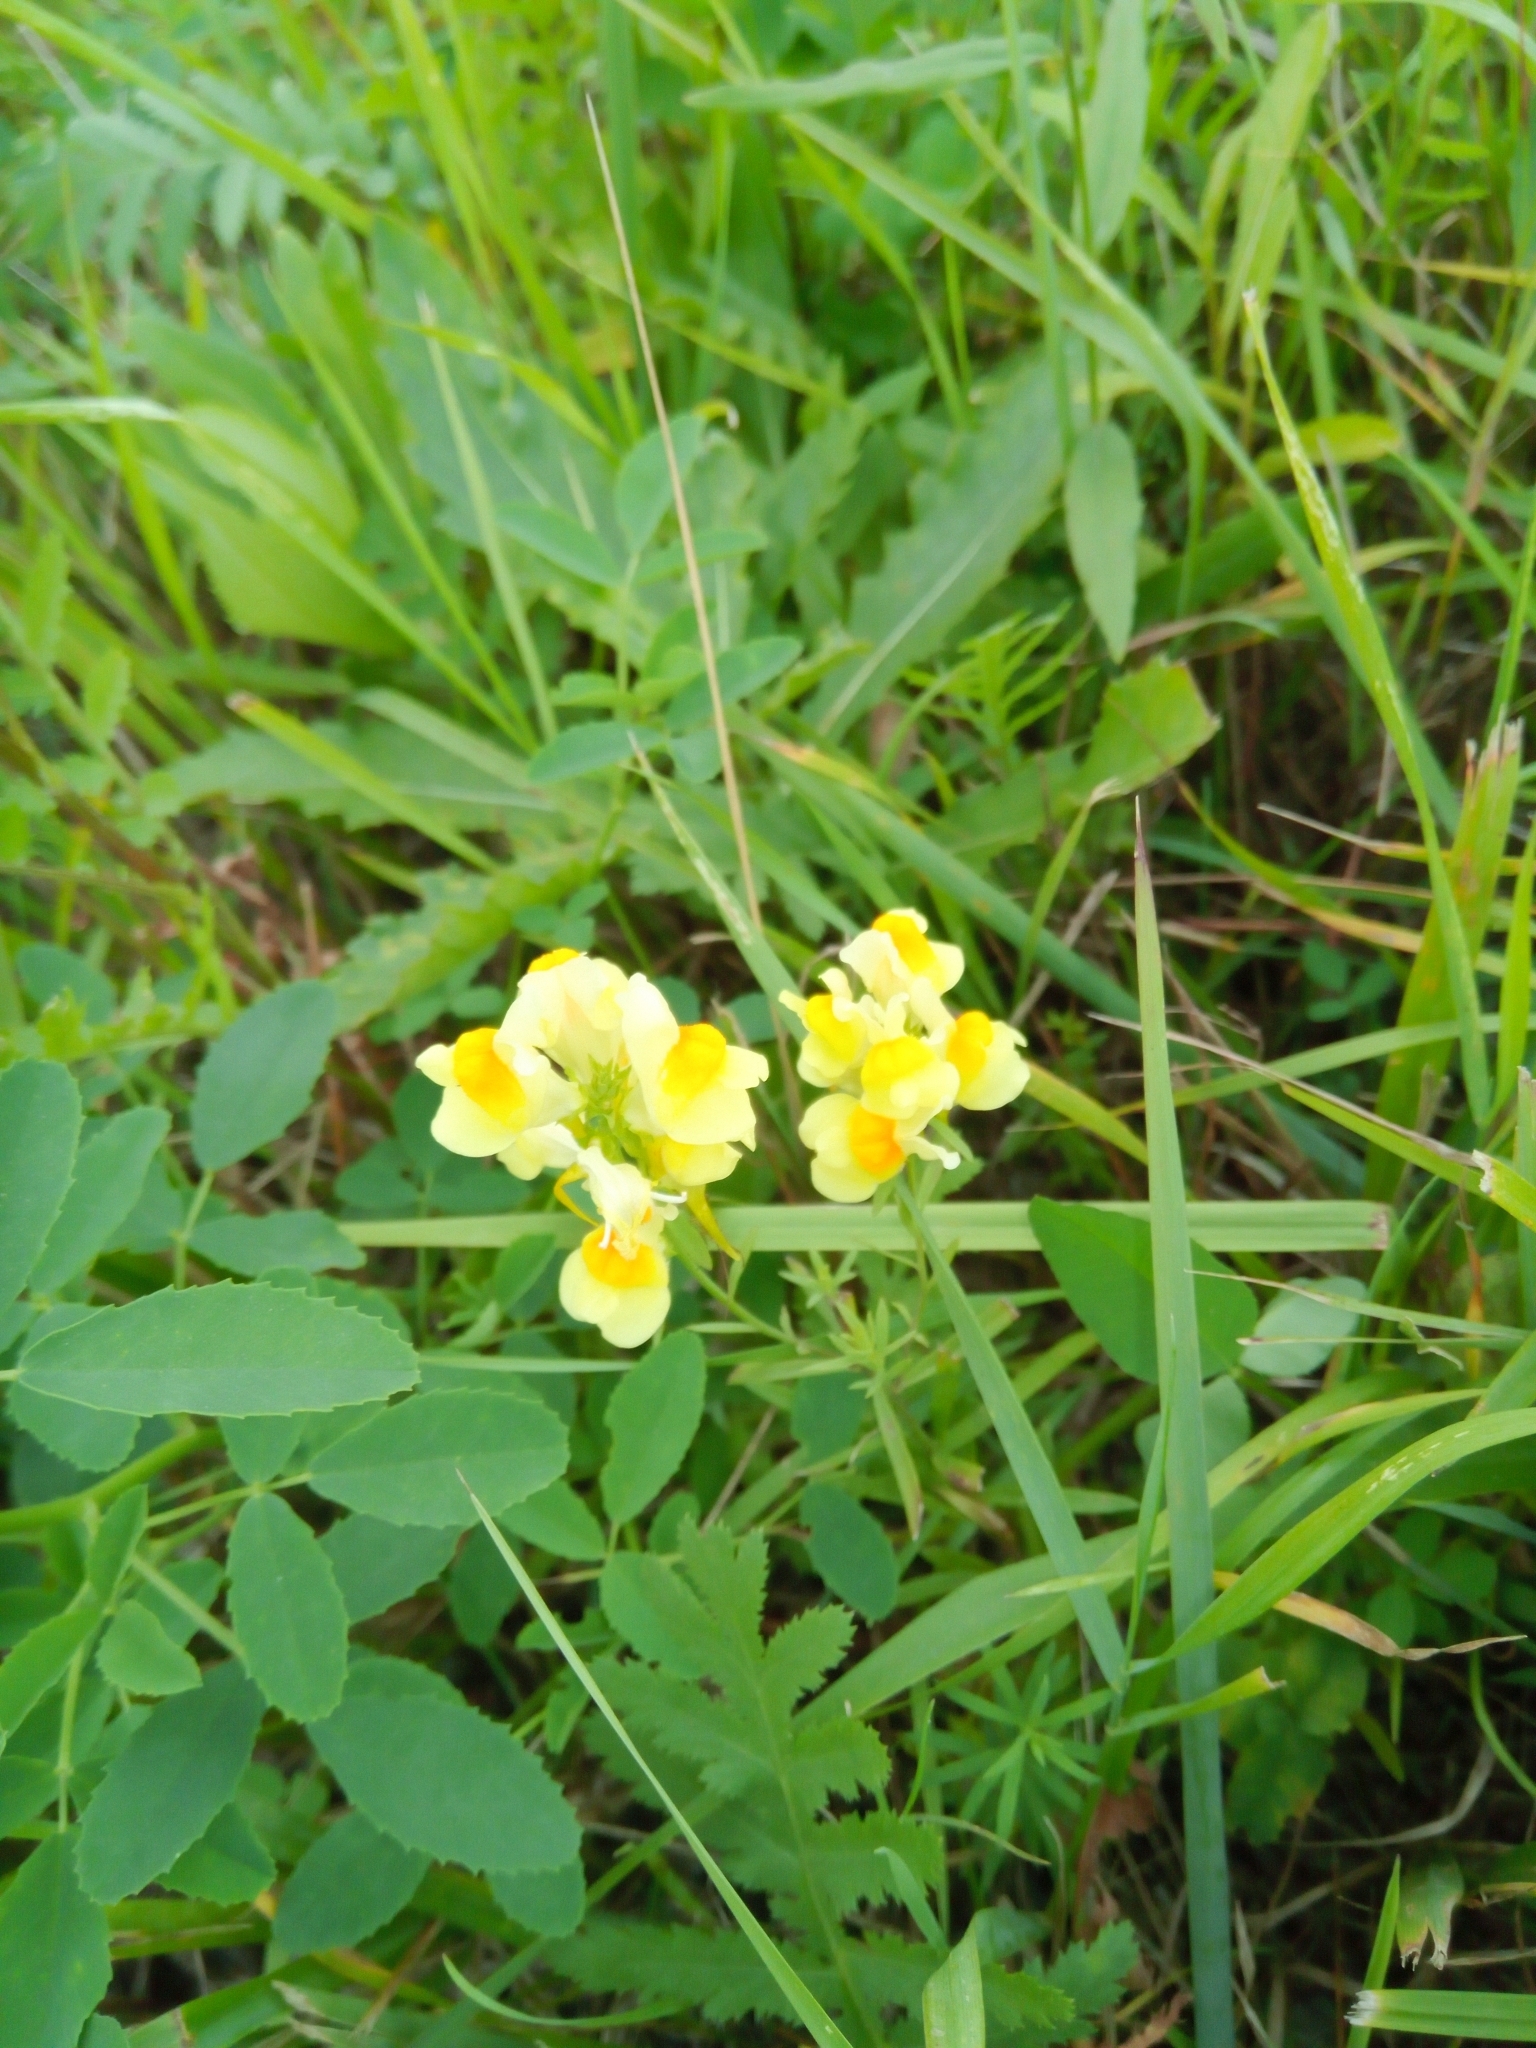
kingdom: Plantae
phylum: Tracheophyta
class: Magnoliopsida
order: Lamiales
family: Plantaginaceae
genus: Linaria
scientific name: Linaria vulgaris
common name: Butter and eggs
